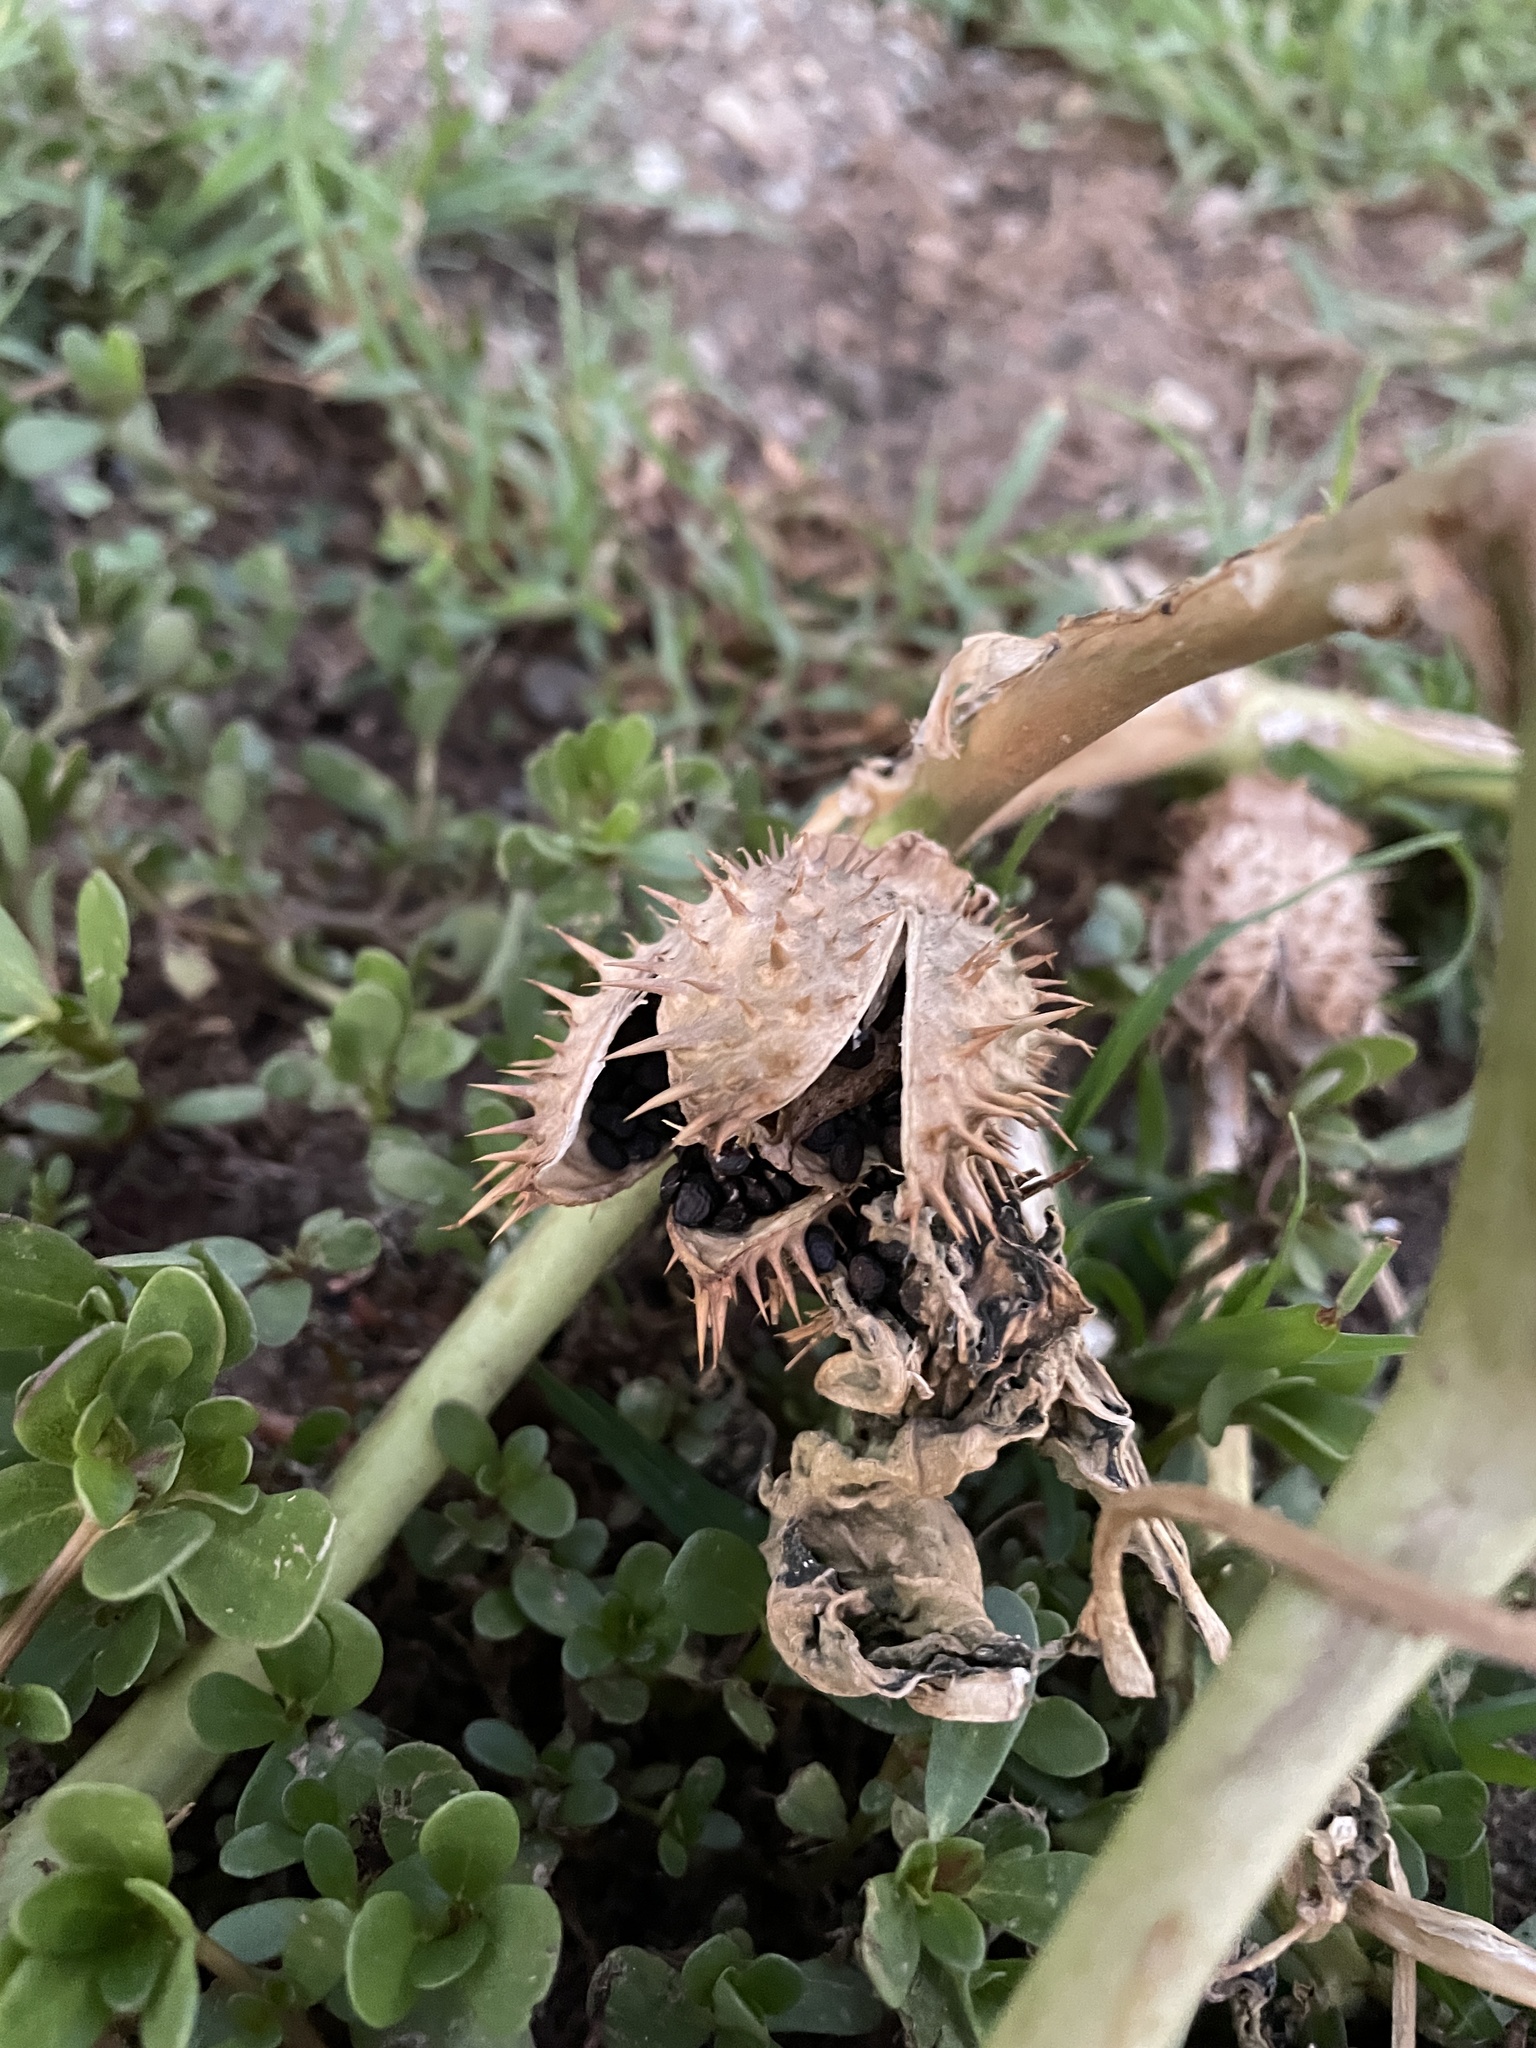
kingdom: Plantae
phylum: Tracheophyta
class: Magnoliopsida
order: Solanales
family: Solanaceae
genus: Datura
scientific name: Datura stramonium
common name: Thorn-apple
